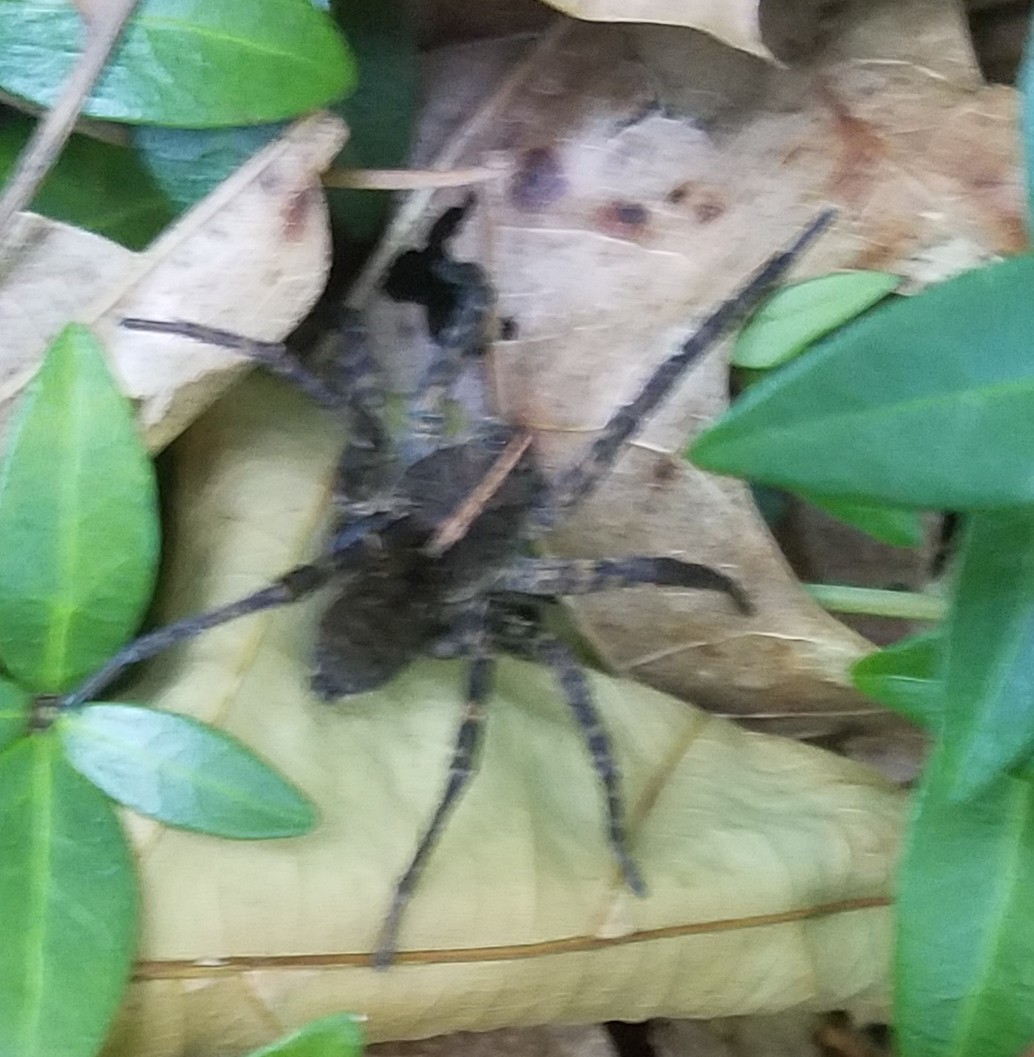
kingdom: Animalia
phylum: Arthropoda
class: Arachnida
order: Araneae
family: Lycosidae
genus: Tigrosa
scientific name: Tigrosa georgicola
